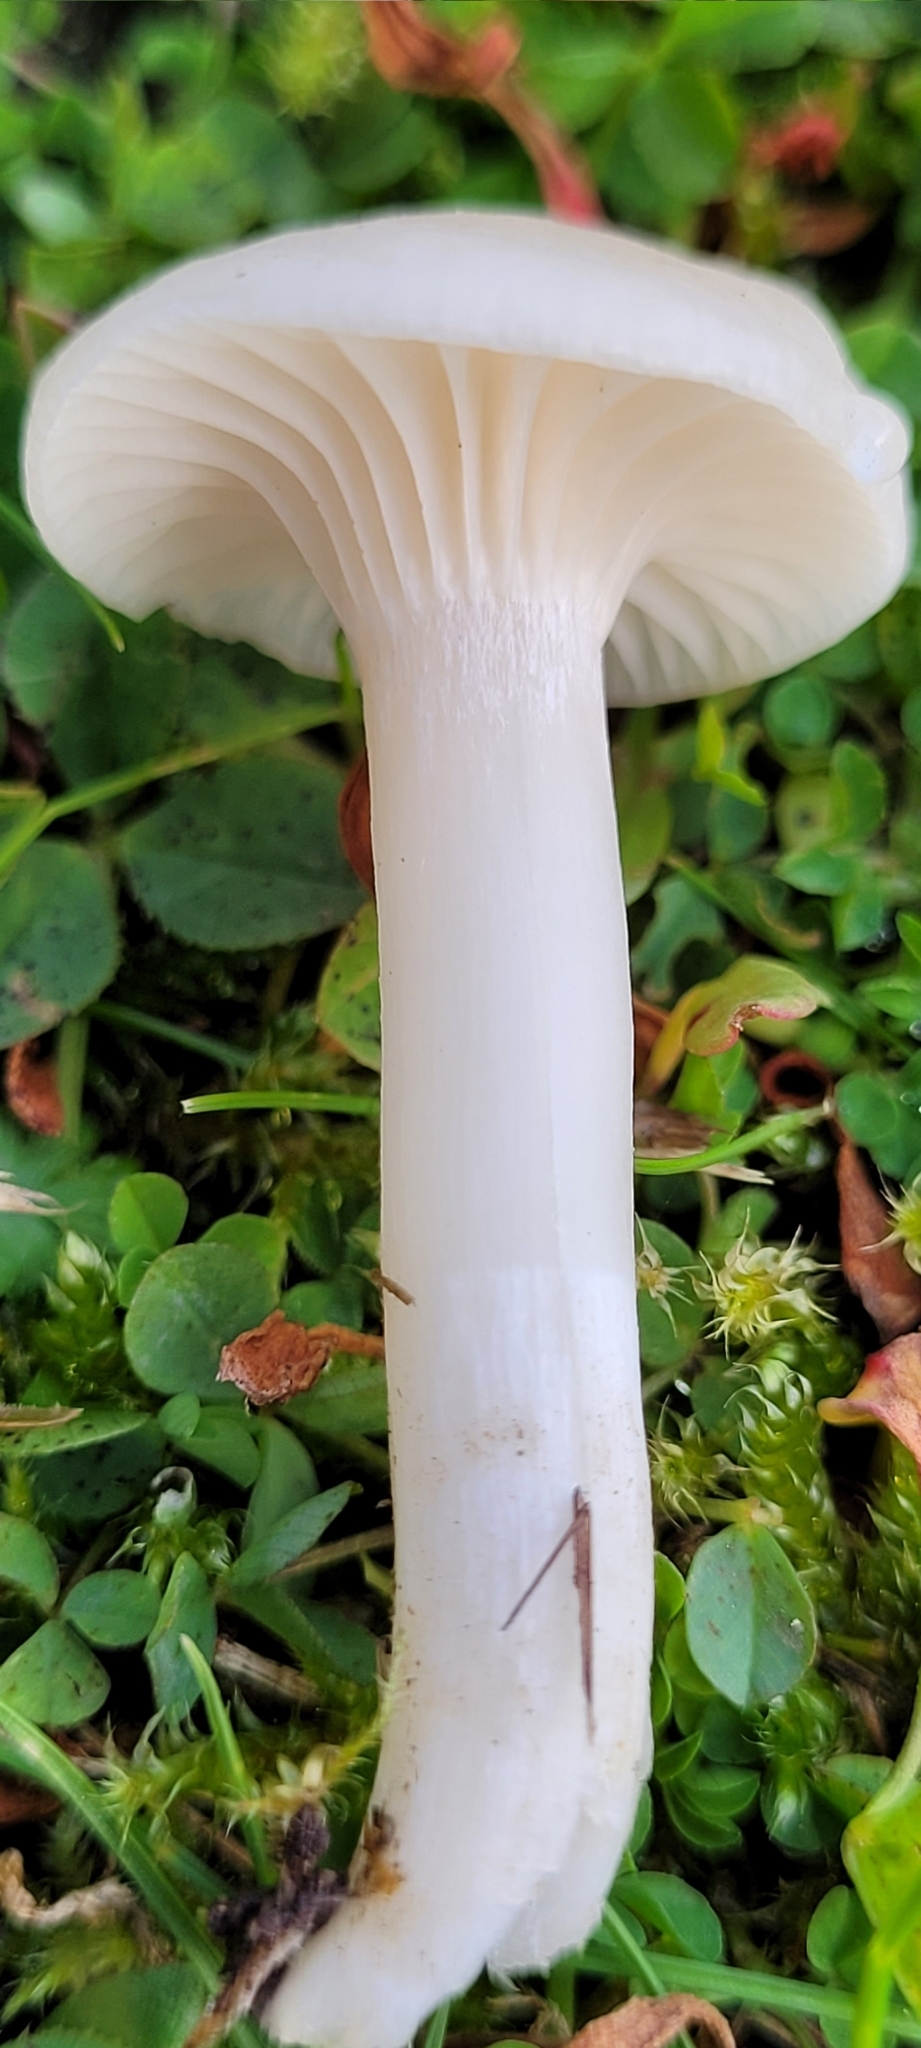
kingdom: Fungi
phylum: Basidiomycota
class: Agaricomycetes
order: Agaricales
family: Hygrophoraceae
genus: Cuphophyllus
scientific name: Cuphophyllus virgineus
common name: Snowy waxcap
